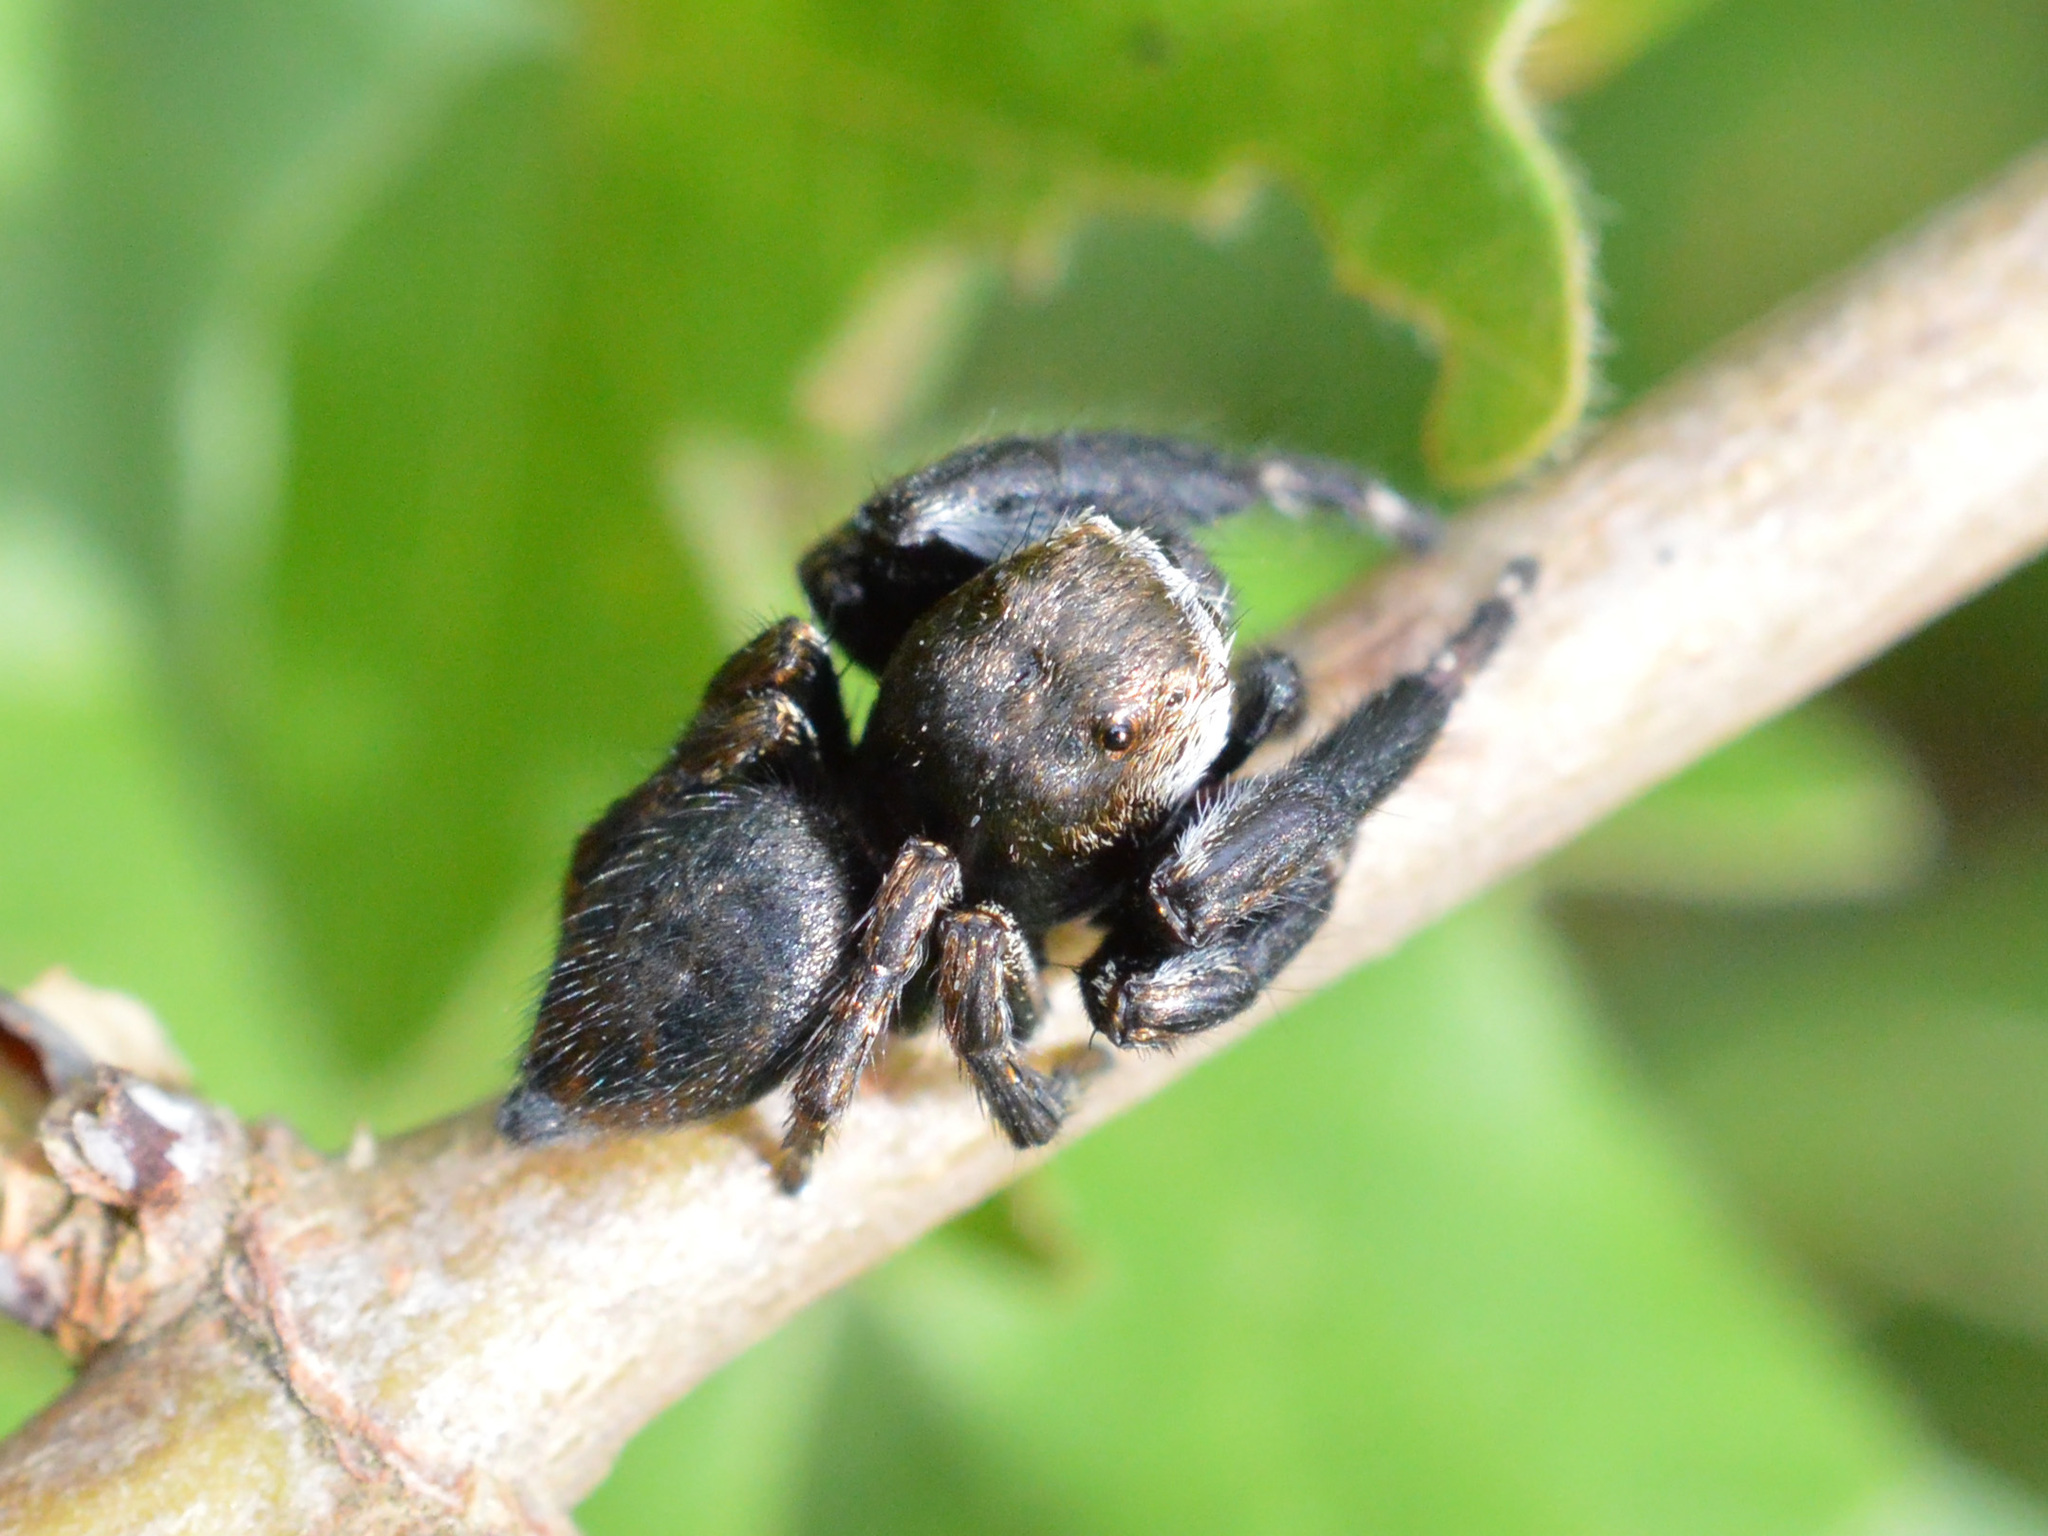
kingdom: Animalia
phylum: Arthropoda
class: Arachnida
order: Araneae
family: Salticidae
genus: Evarcha
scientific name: Evarcha arcuata
